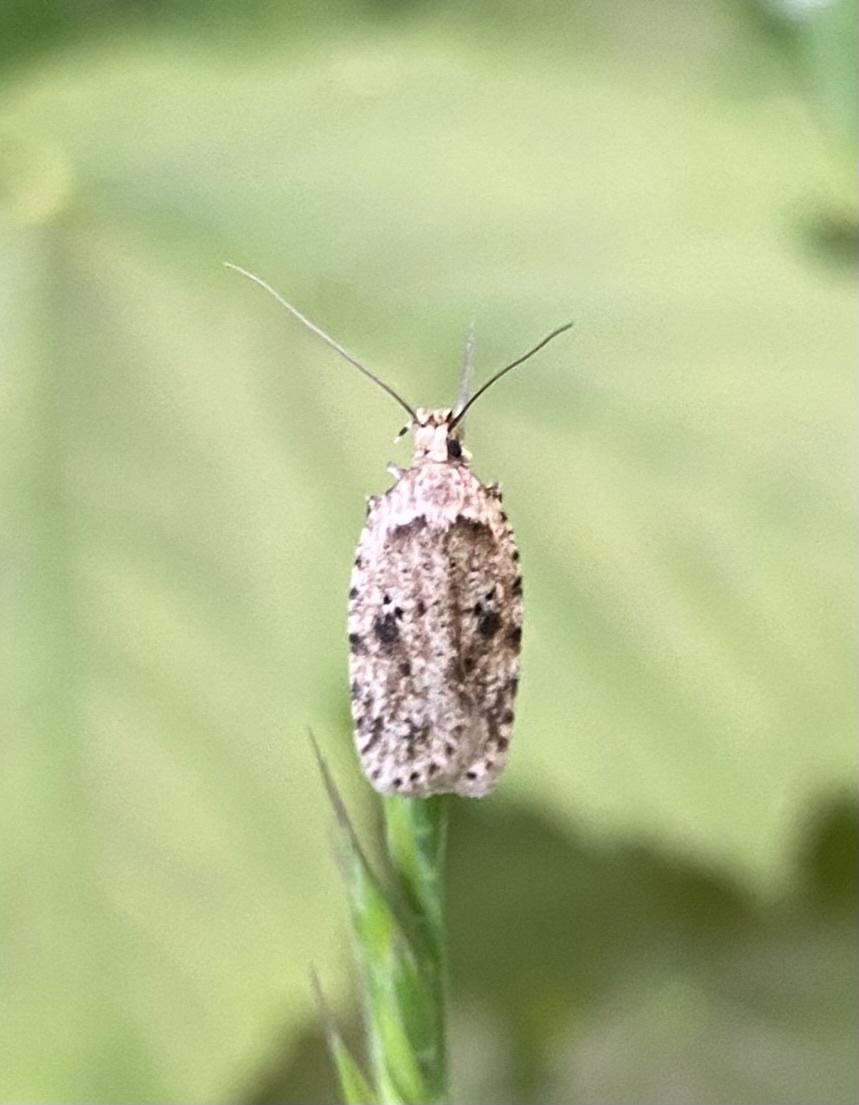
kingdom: Animalia
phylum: Arthropoda
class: Insecta
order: Lepidoptera
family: Depressariidae
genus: Agonopterix
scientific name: Agonopterix arenella
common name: Brindled flat-body
